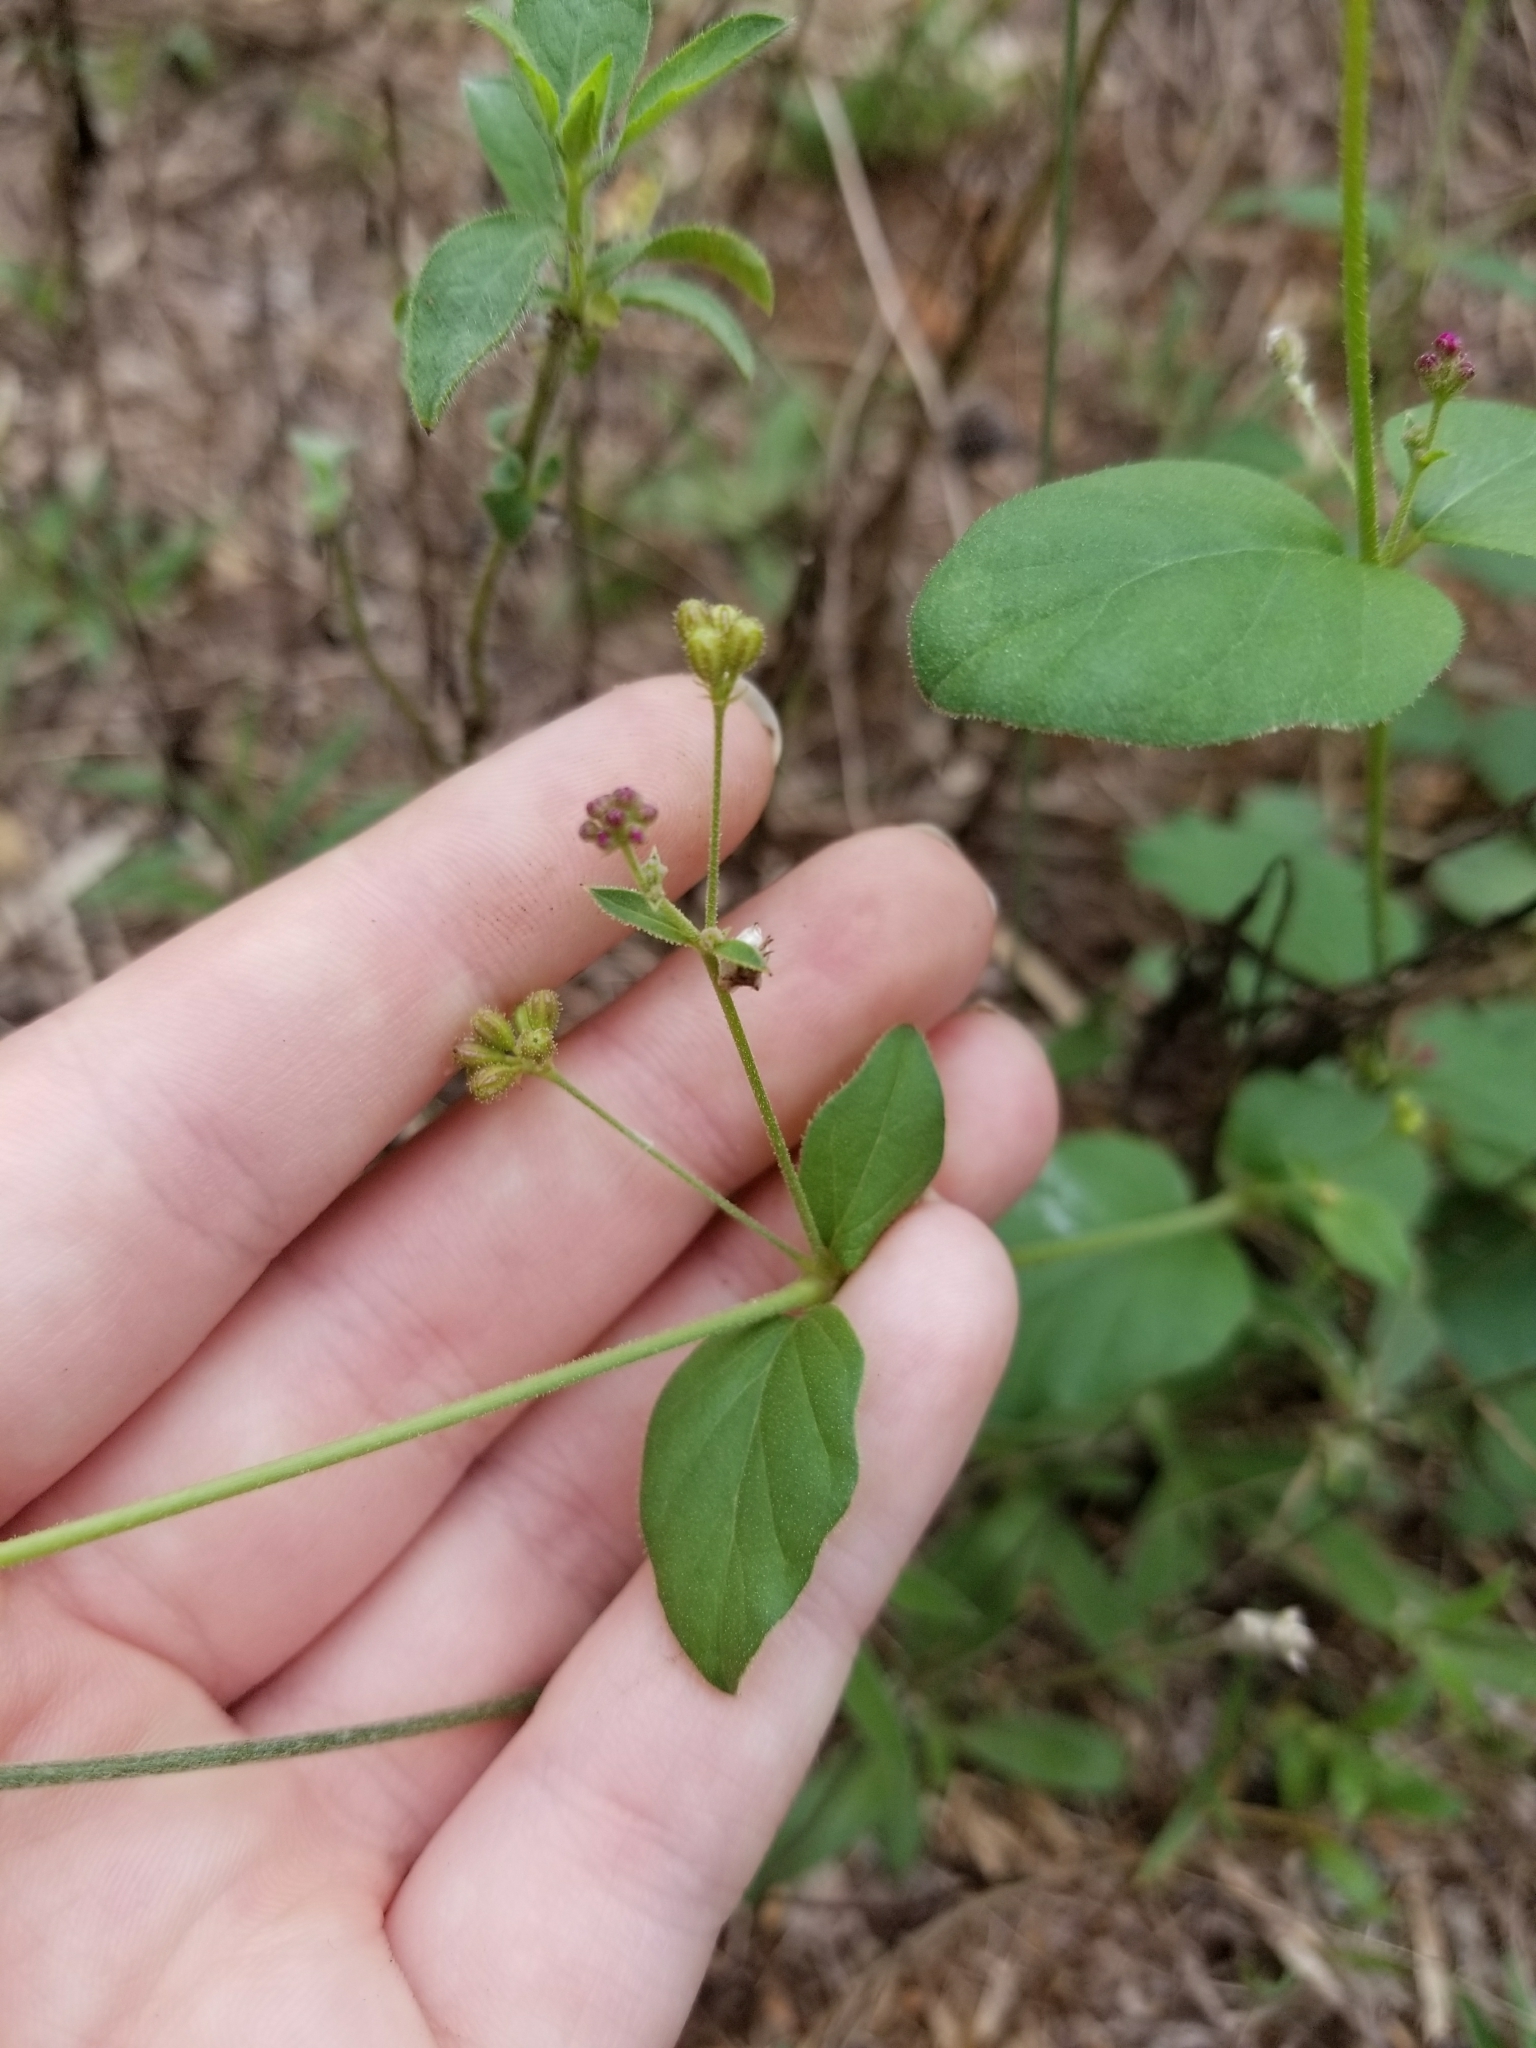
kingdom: Plantae
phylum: Tracheophyta
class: Magnoliopsida
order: Caryophyllales
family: Nyctaginaceae
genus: Boerhavia
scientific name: Boerhavia coccinea
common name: Scarlet spiderling
